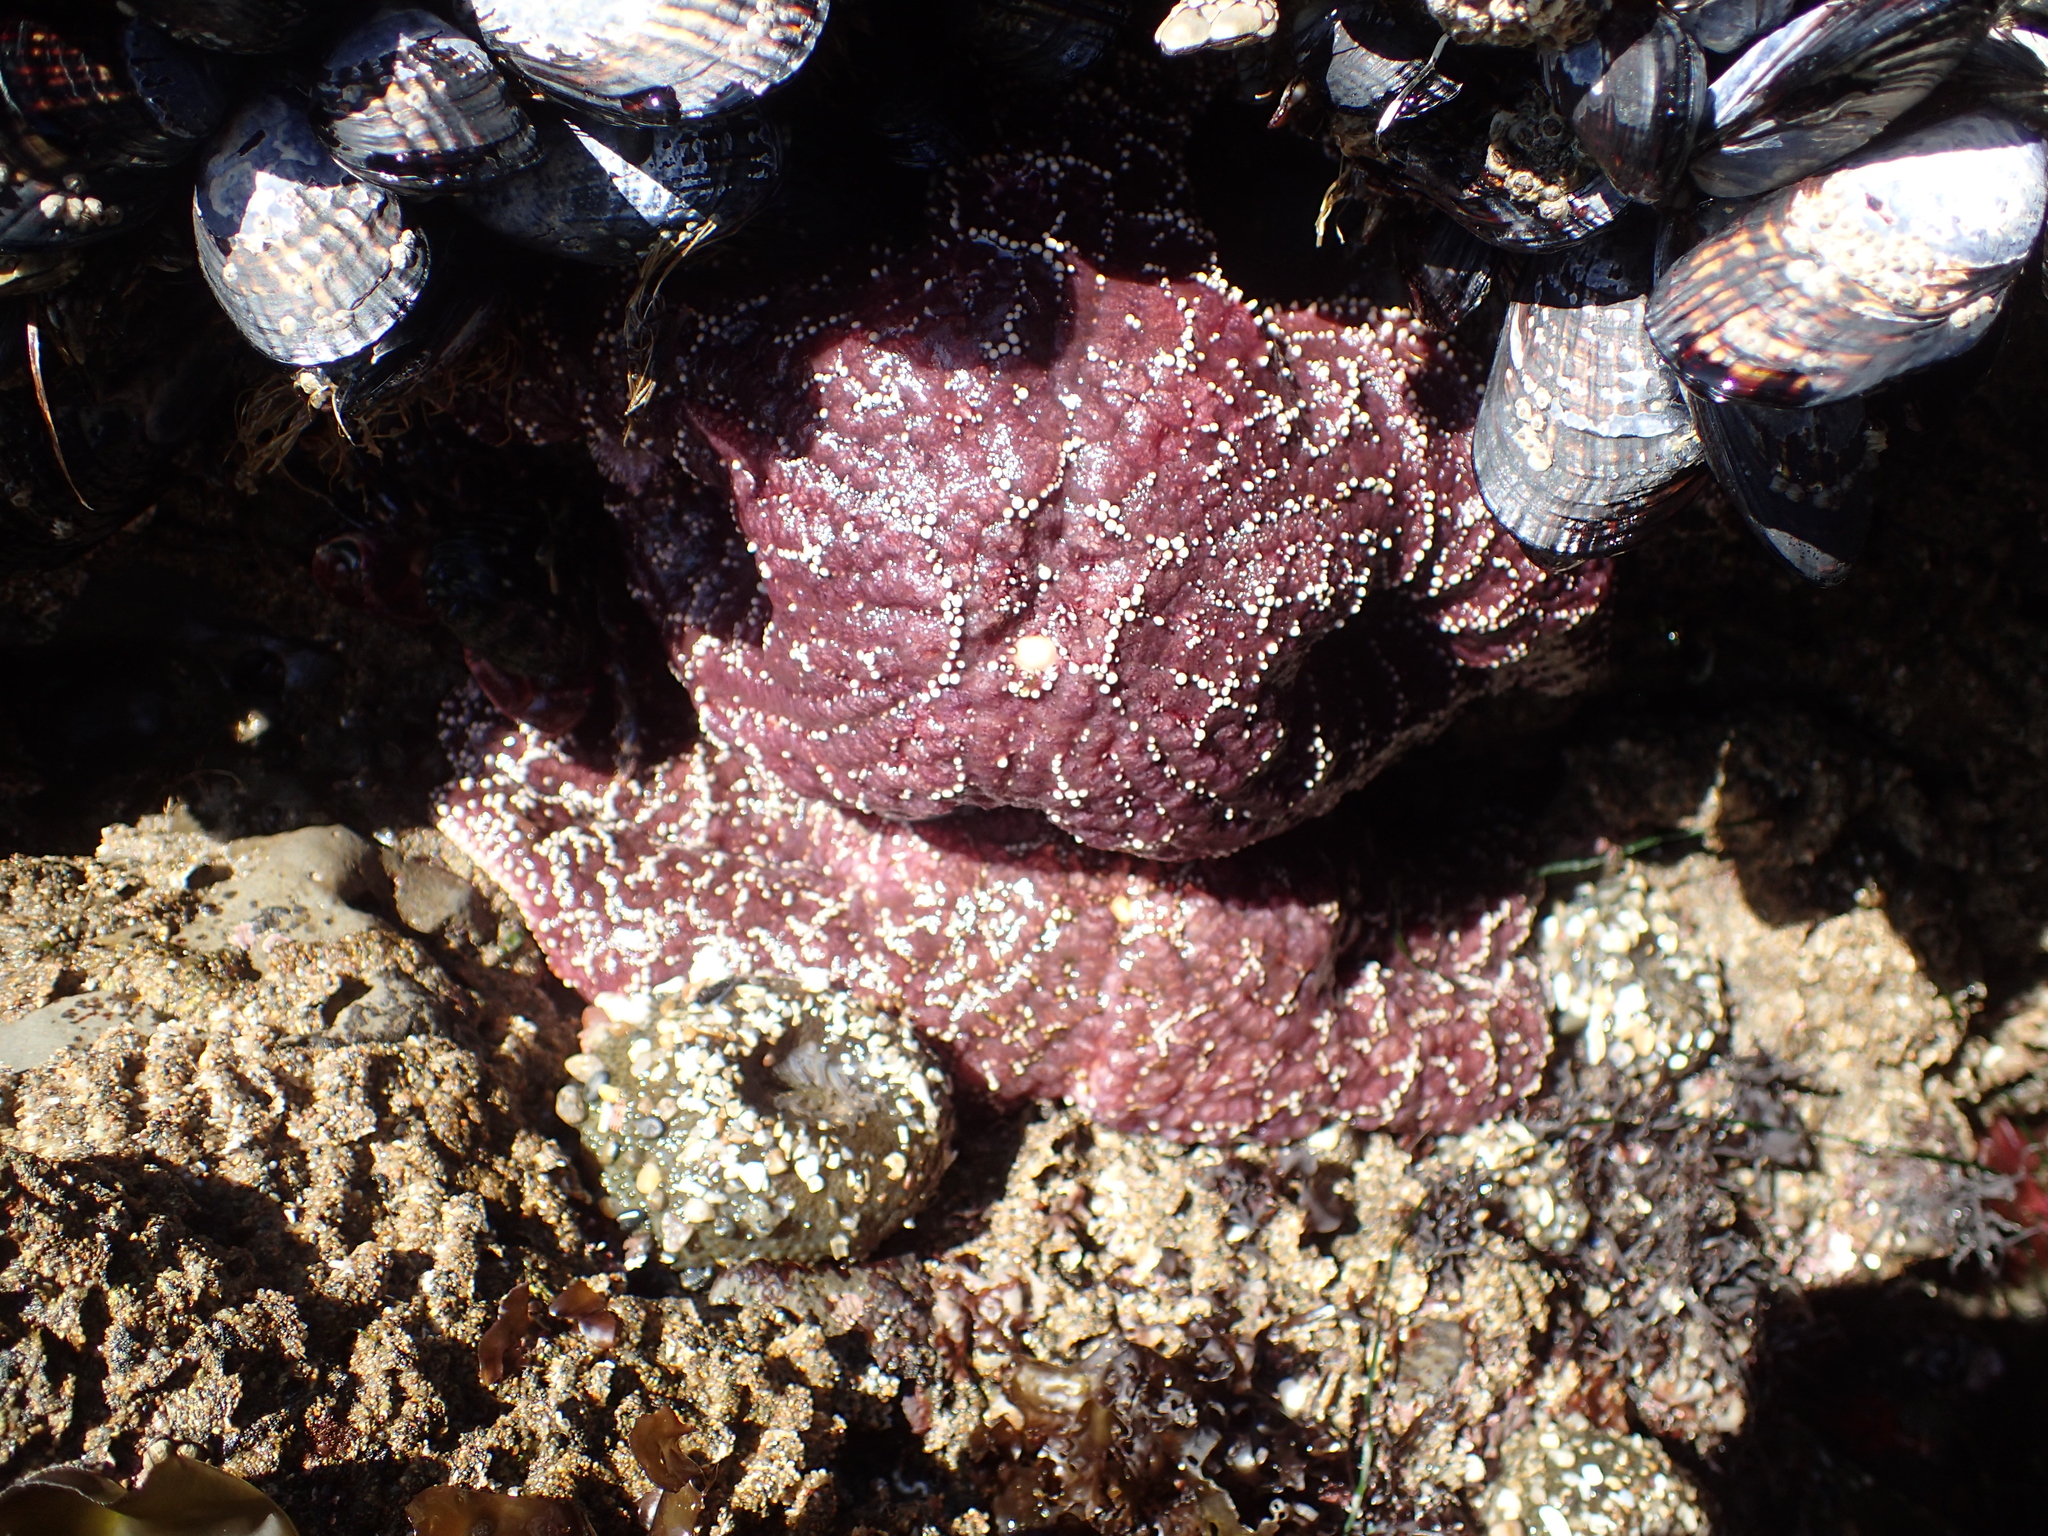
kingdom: Animalia
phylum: Echinodermata
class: Asteroidea
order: Forcipulatida
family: Asteriidae
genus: Pisaster
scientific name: Pisaster ochraceus
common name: Ochre stars
